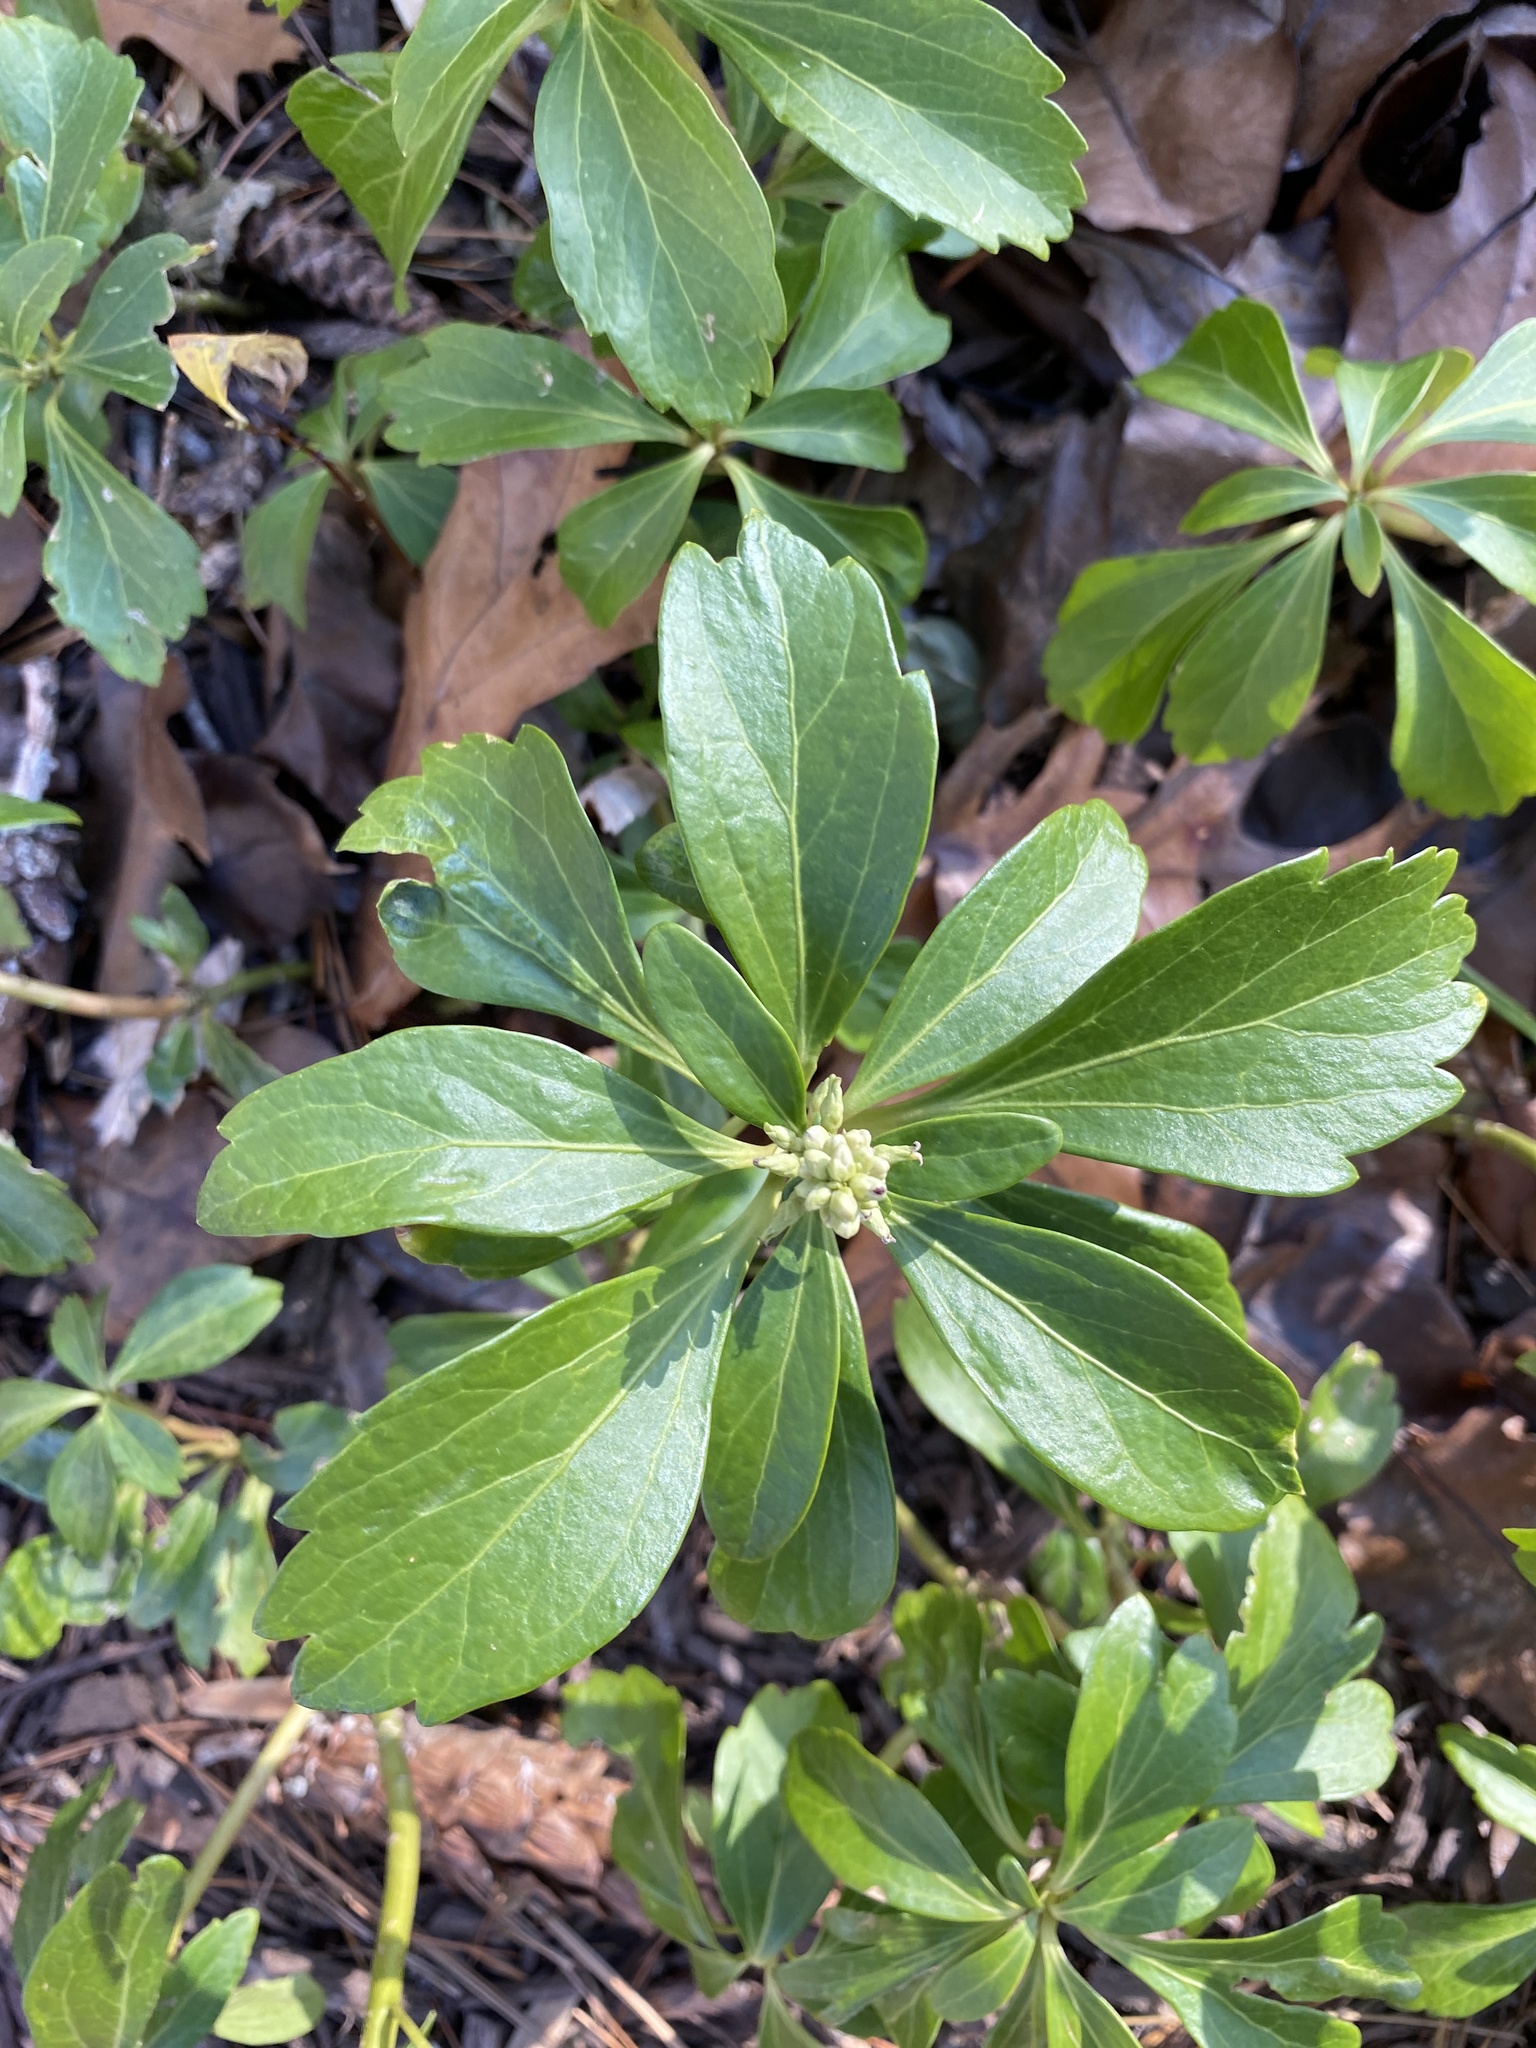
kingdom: Plantae
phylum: Tracheophyta
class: Magnoliopsida
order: Buxales
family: Buxaceae
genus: Pachysandra
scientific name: Pachysandra terminalis
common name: Japanese pachysandra
